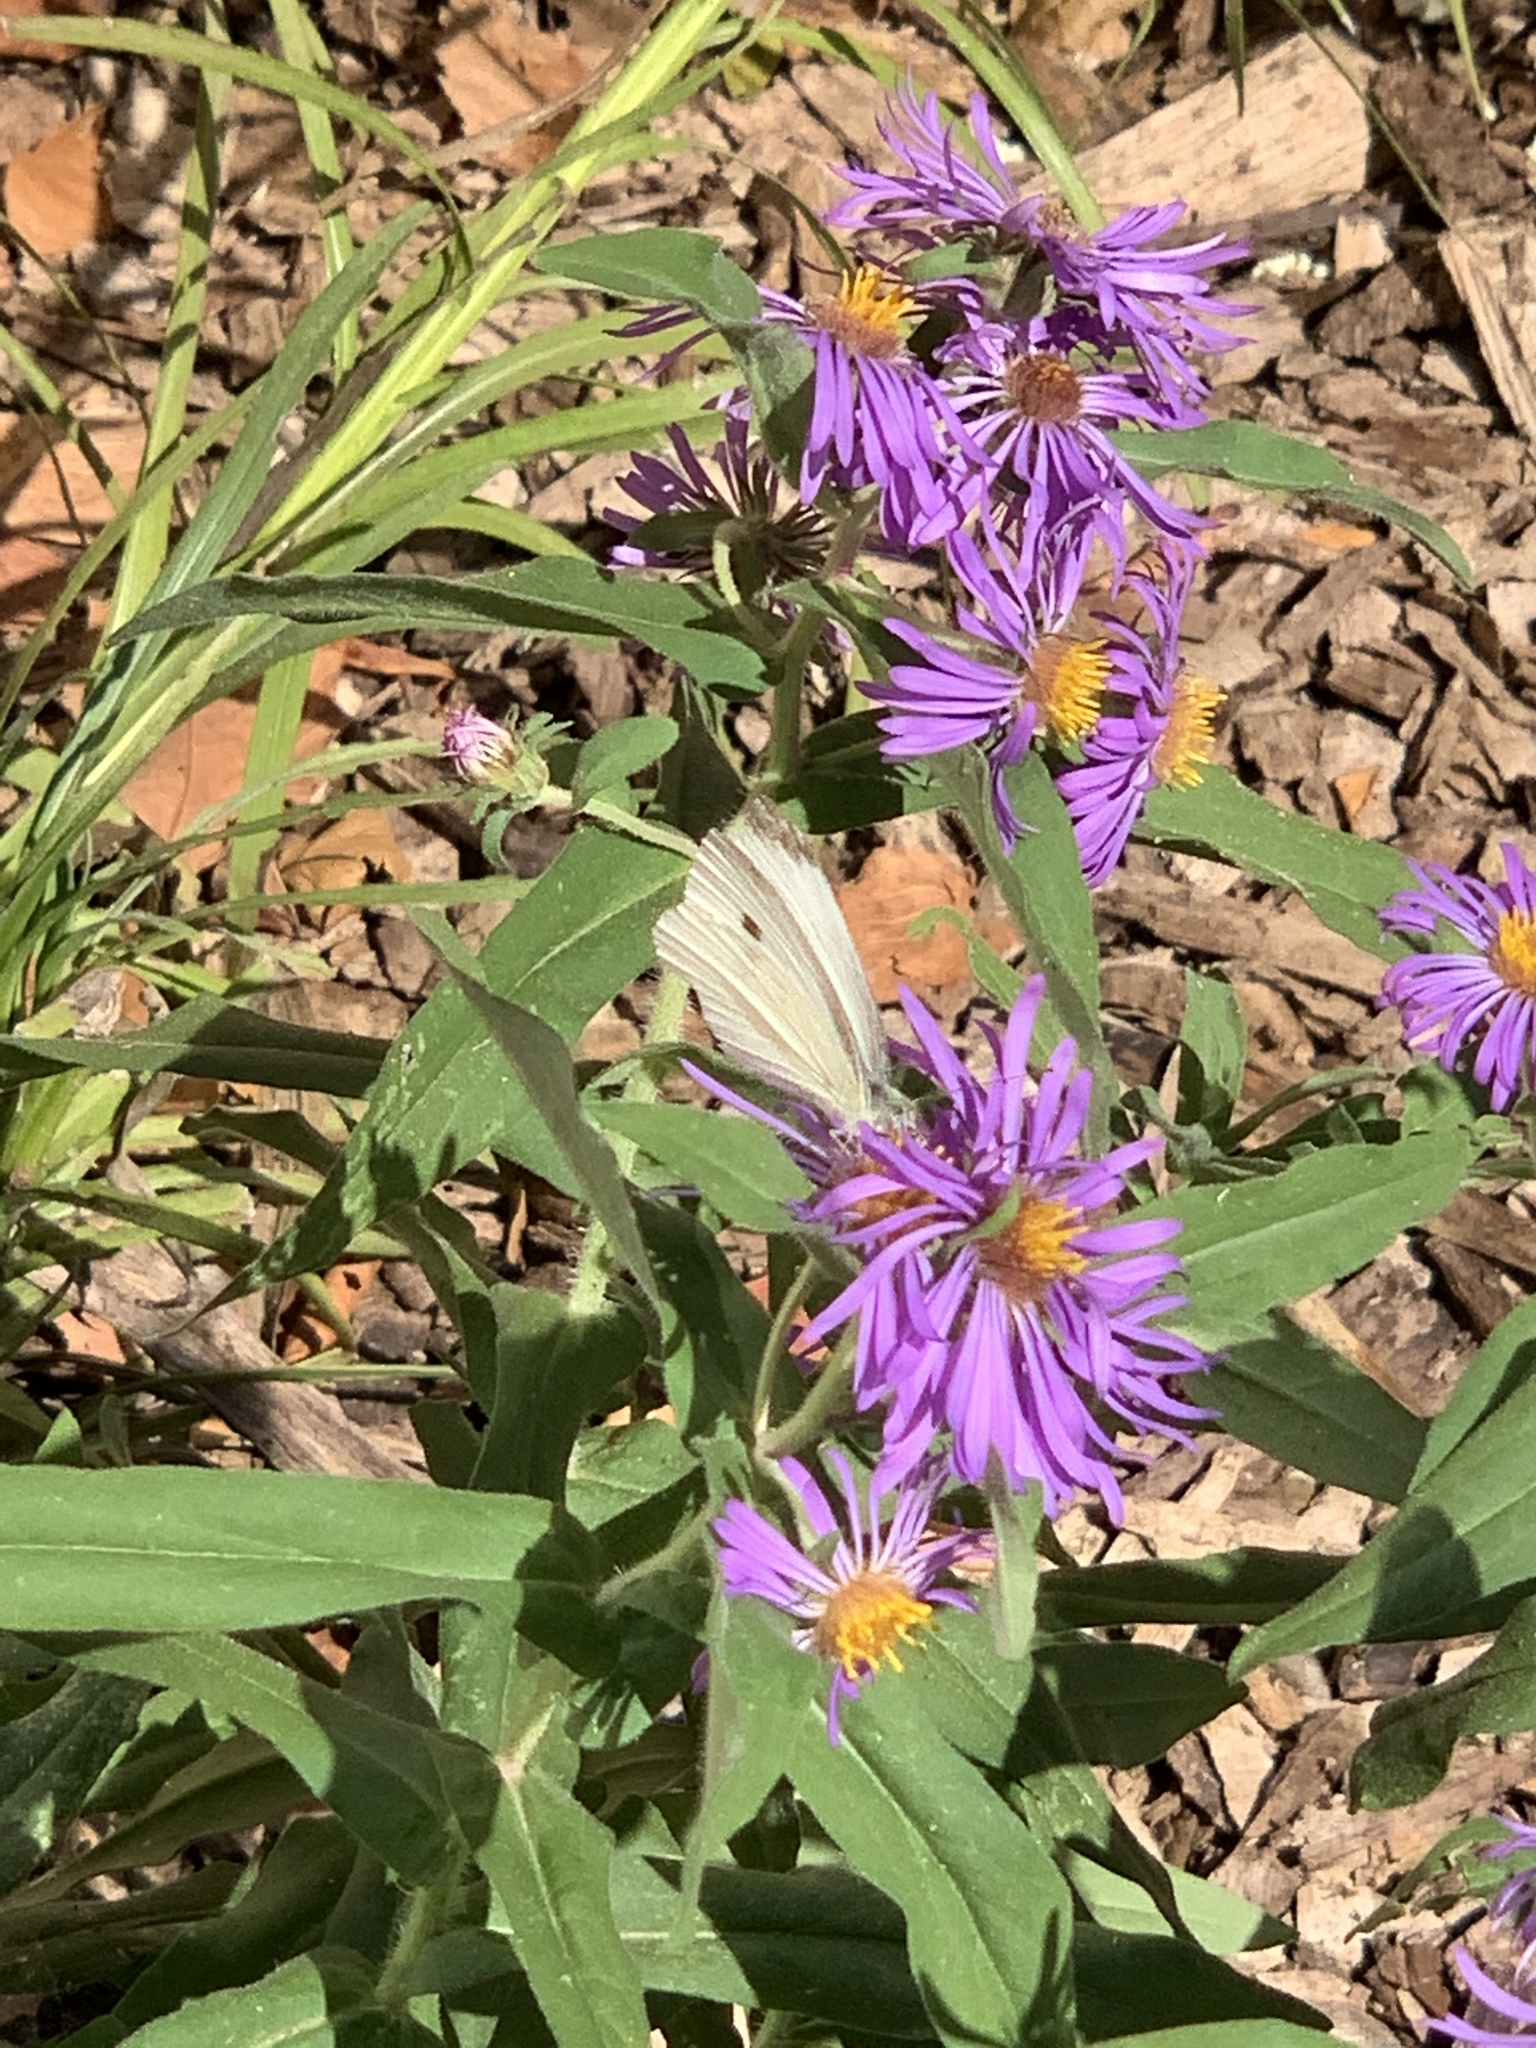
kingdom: Animalia
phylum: Arthropoda
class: Insecta
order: Lepidoptera
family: Pieridae
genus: Pieris
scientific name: Pieris rapae
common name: Small white
